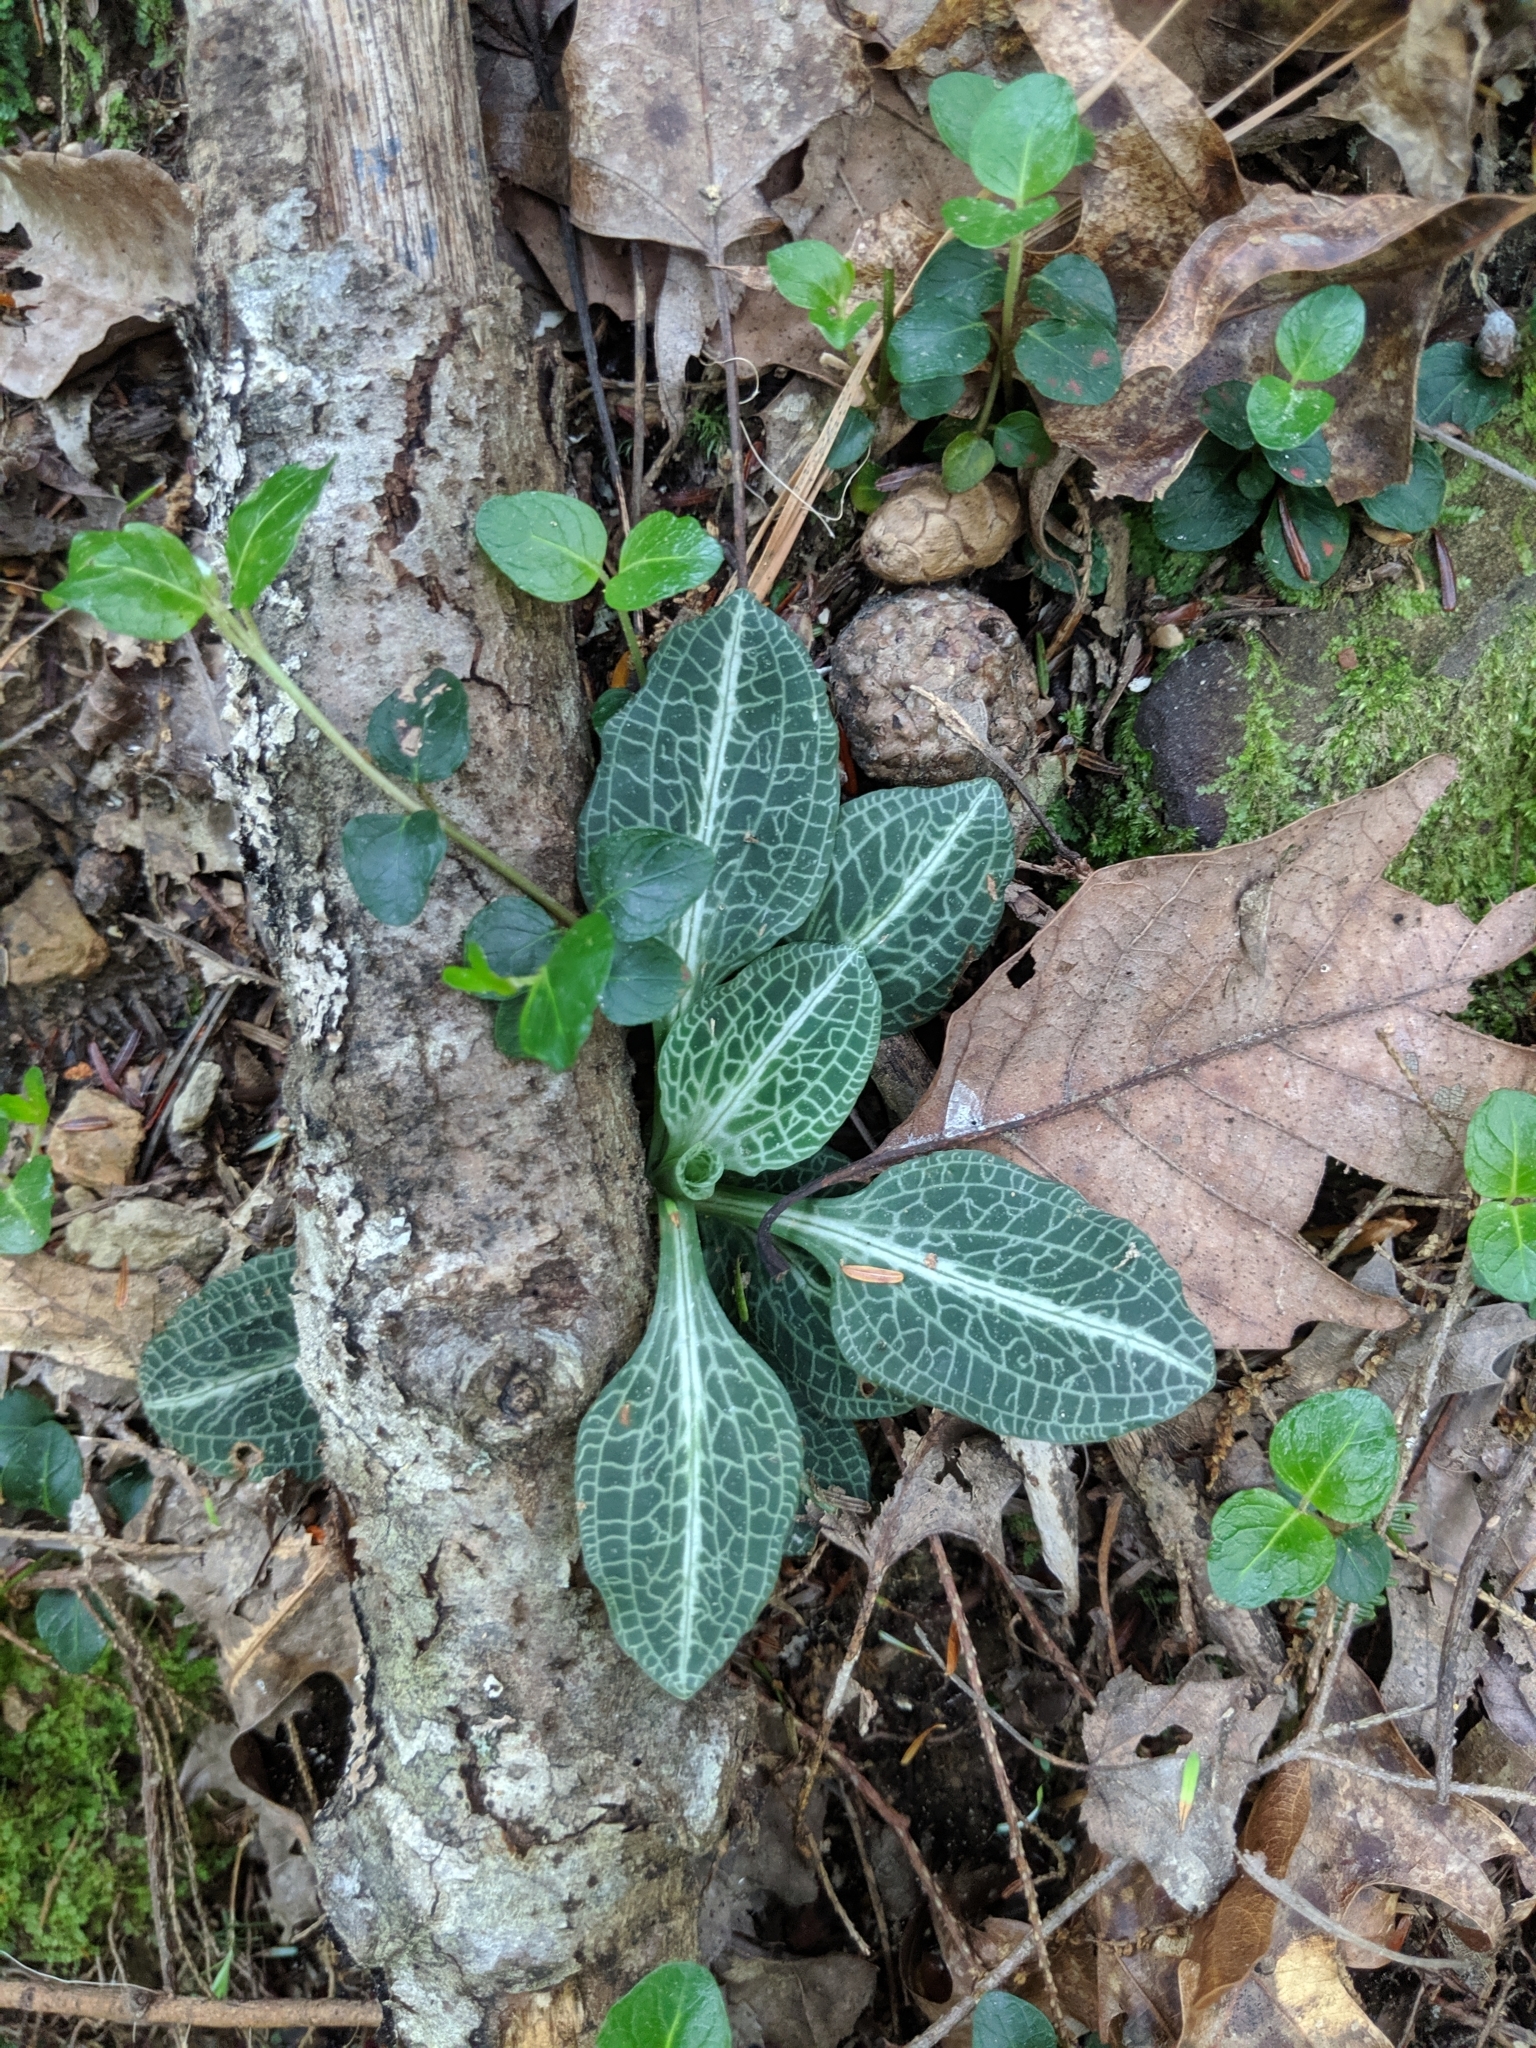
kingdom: Plantae
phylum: Tracheophyta
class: Liliopsida
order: Asparagales
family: Orchidaceae
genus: Goodyera
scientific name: Goodyera pubescens
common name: Downy rattlesnake-plantain
